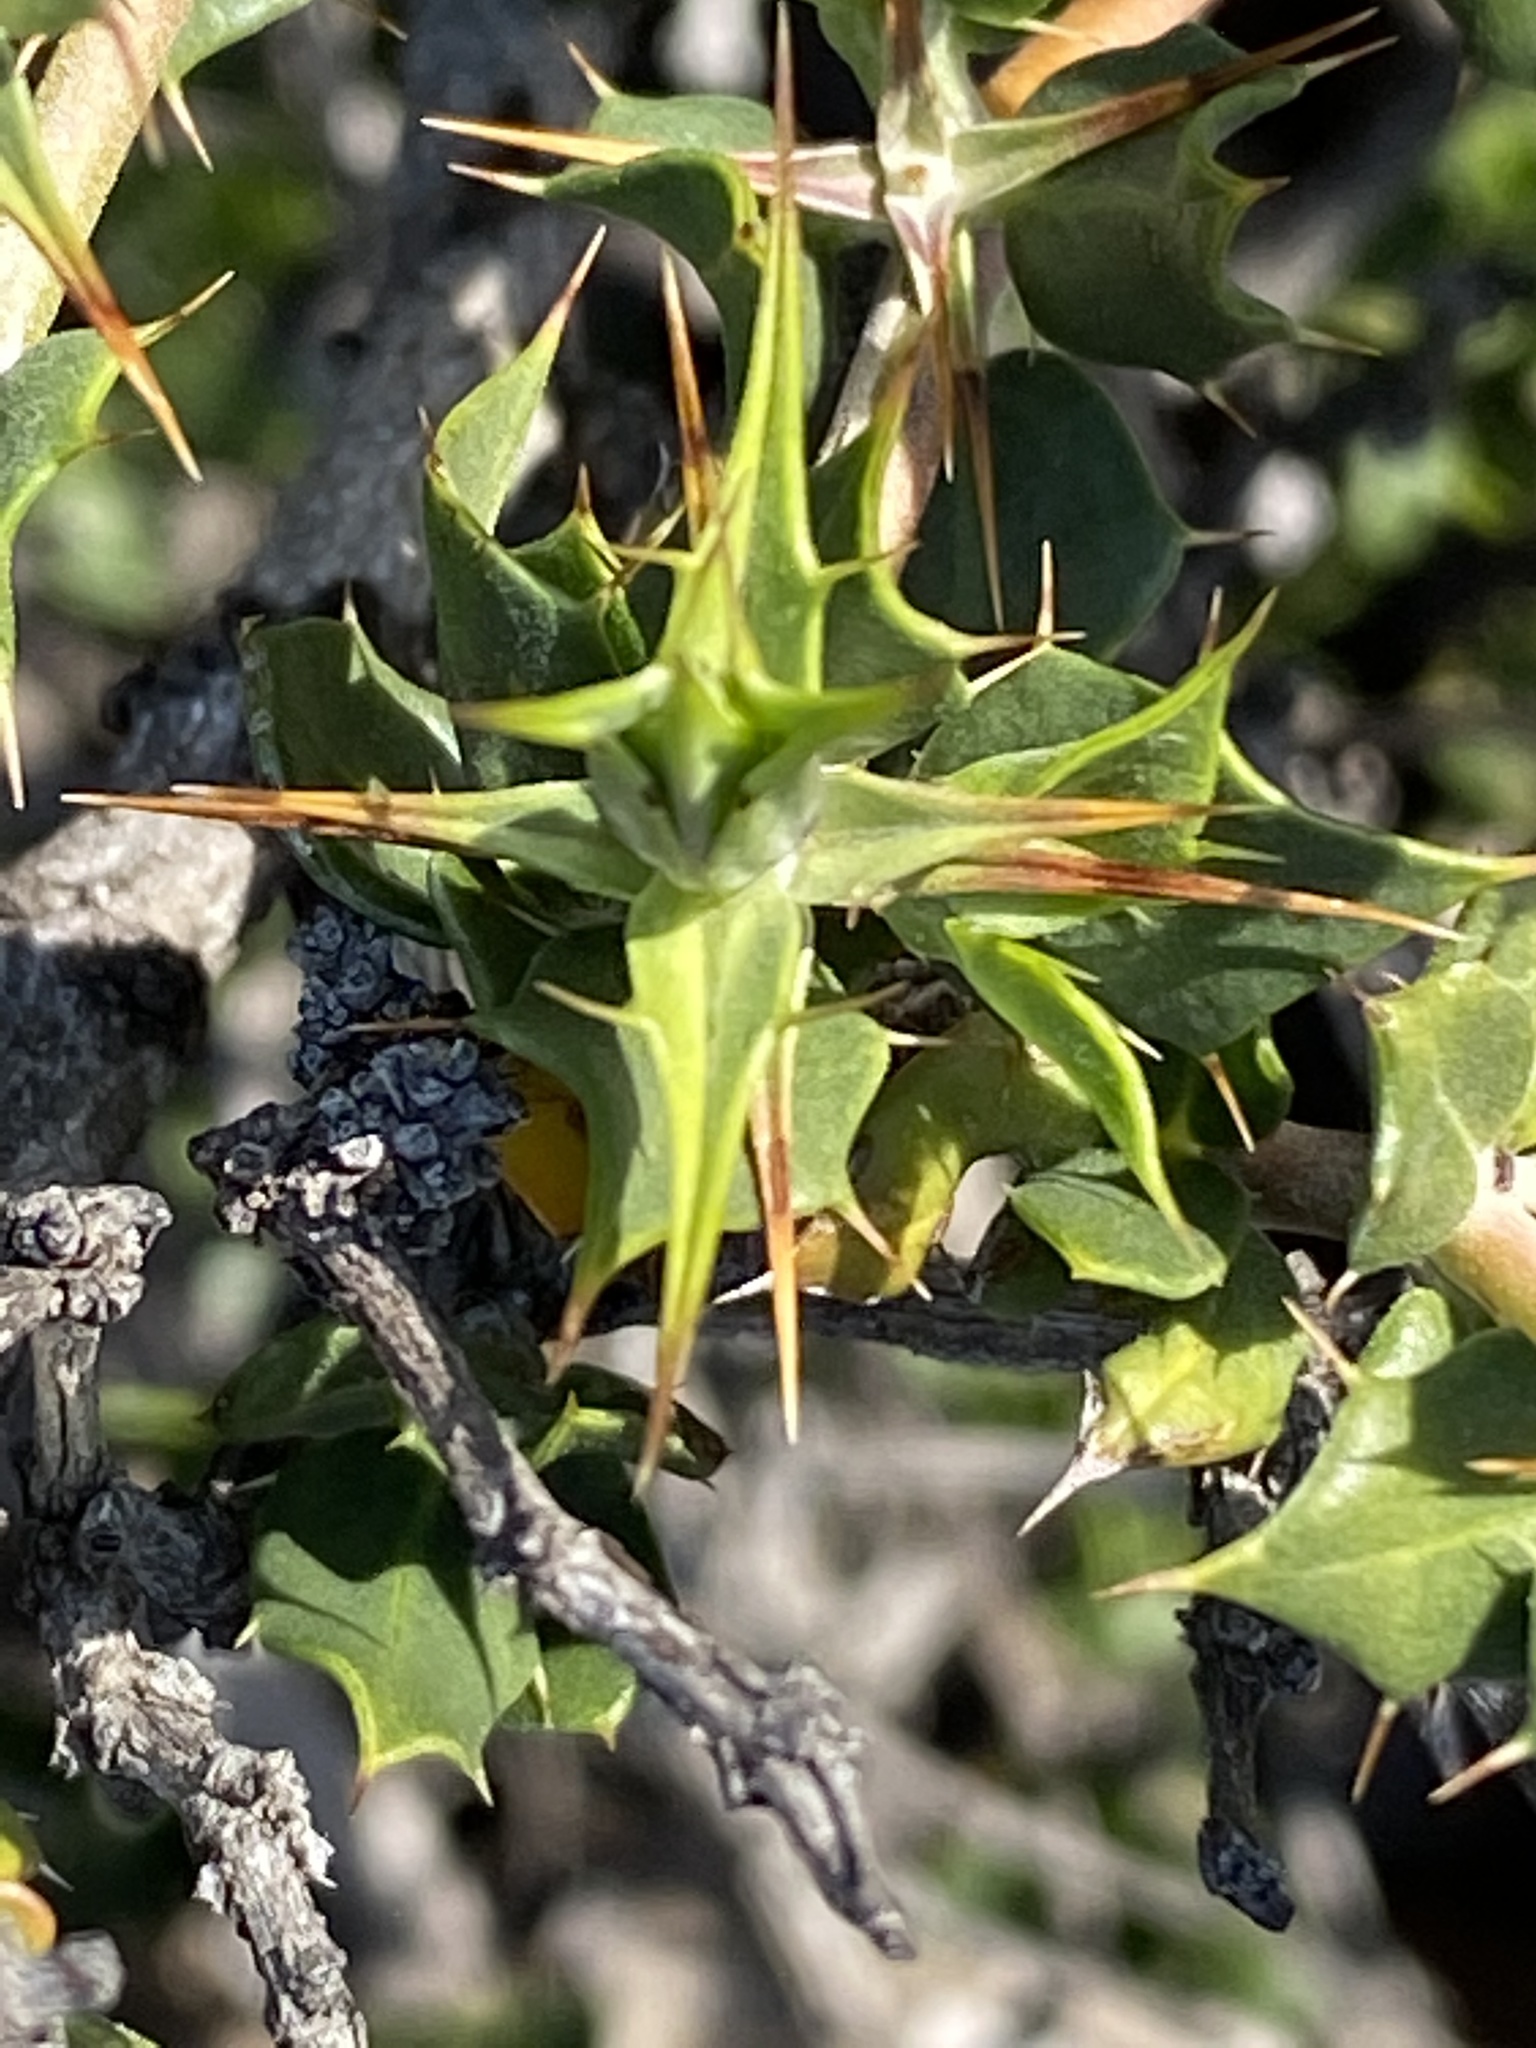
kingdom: Plantae
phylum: Tracheophyta
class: Magnoliopsida
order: Lamiales
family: Acanthaceae
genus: Blepharis
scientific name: Blepharis capensis
